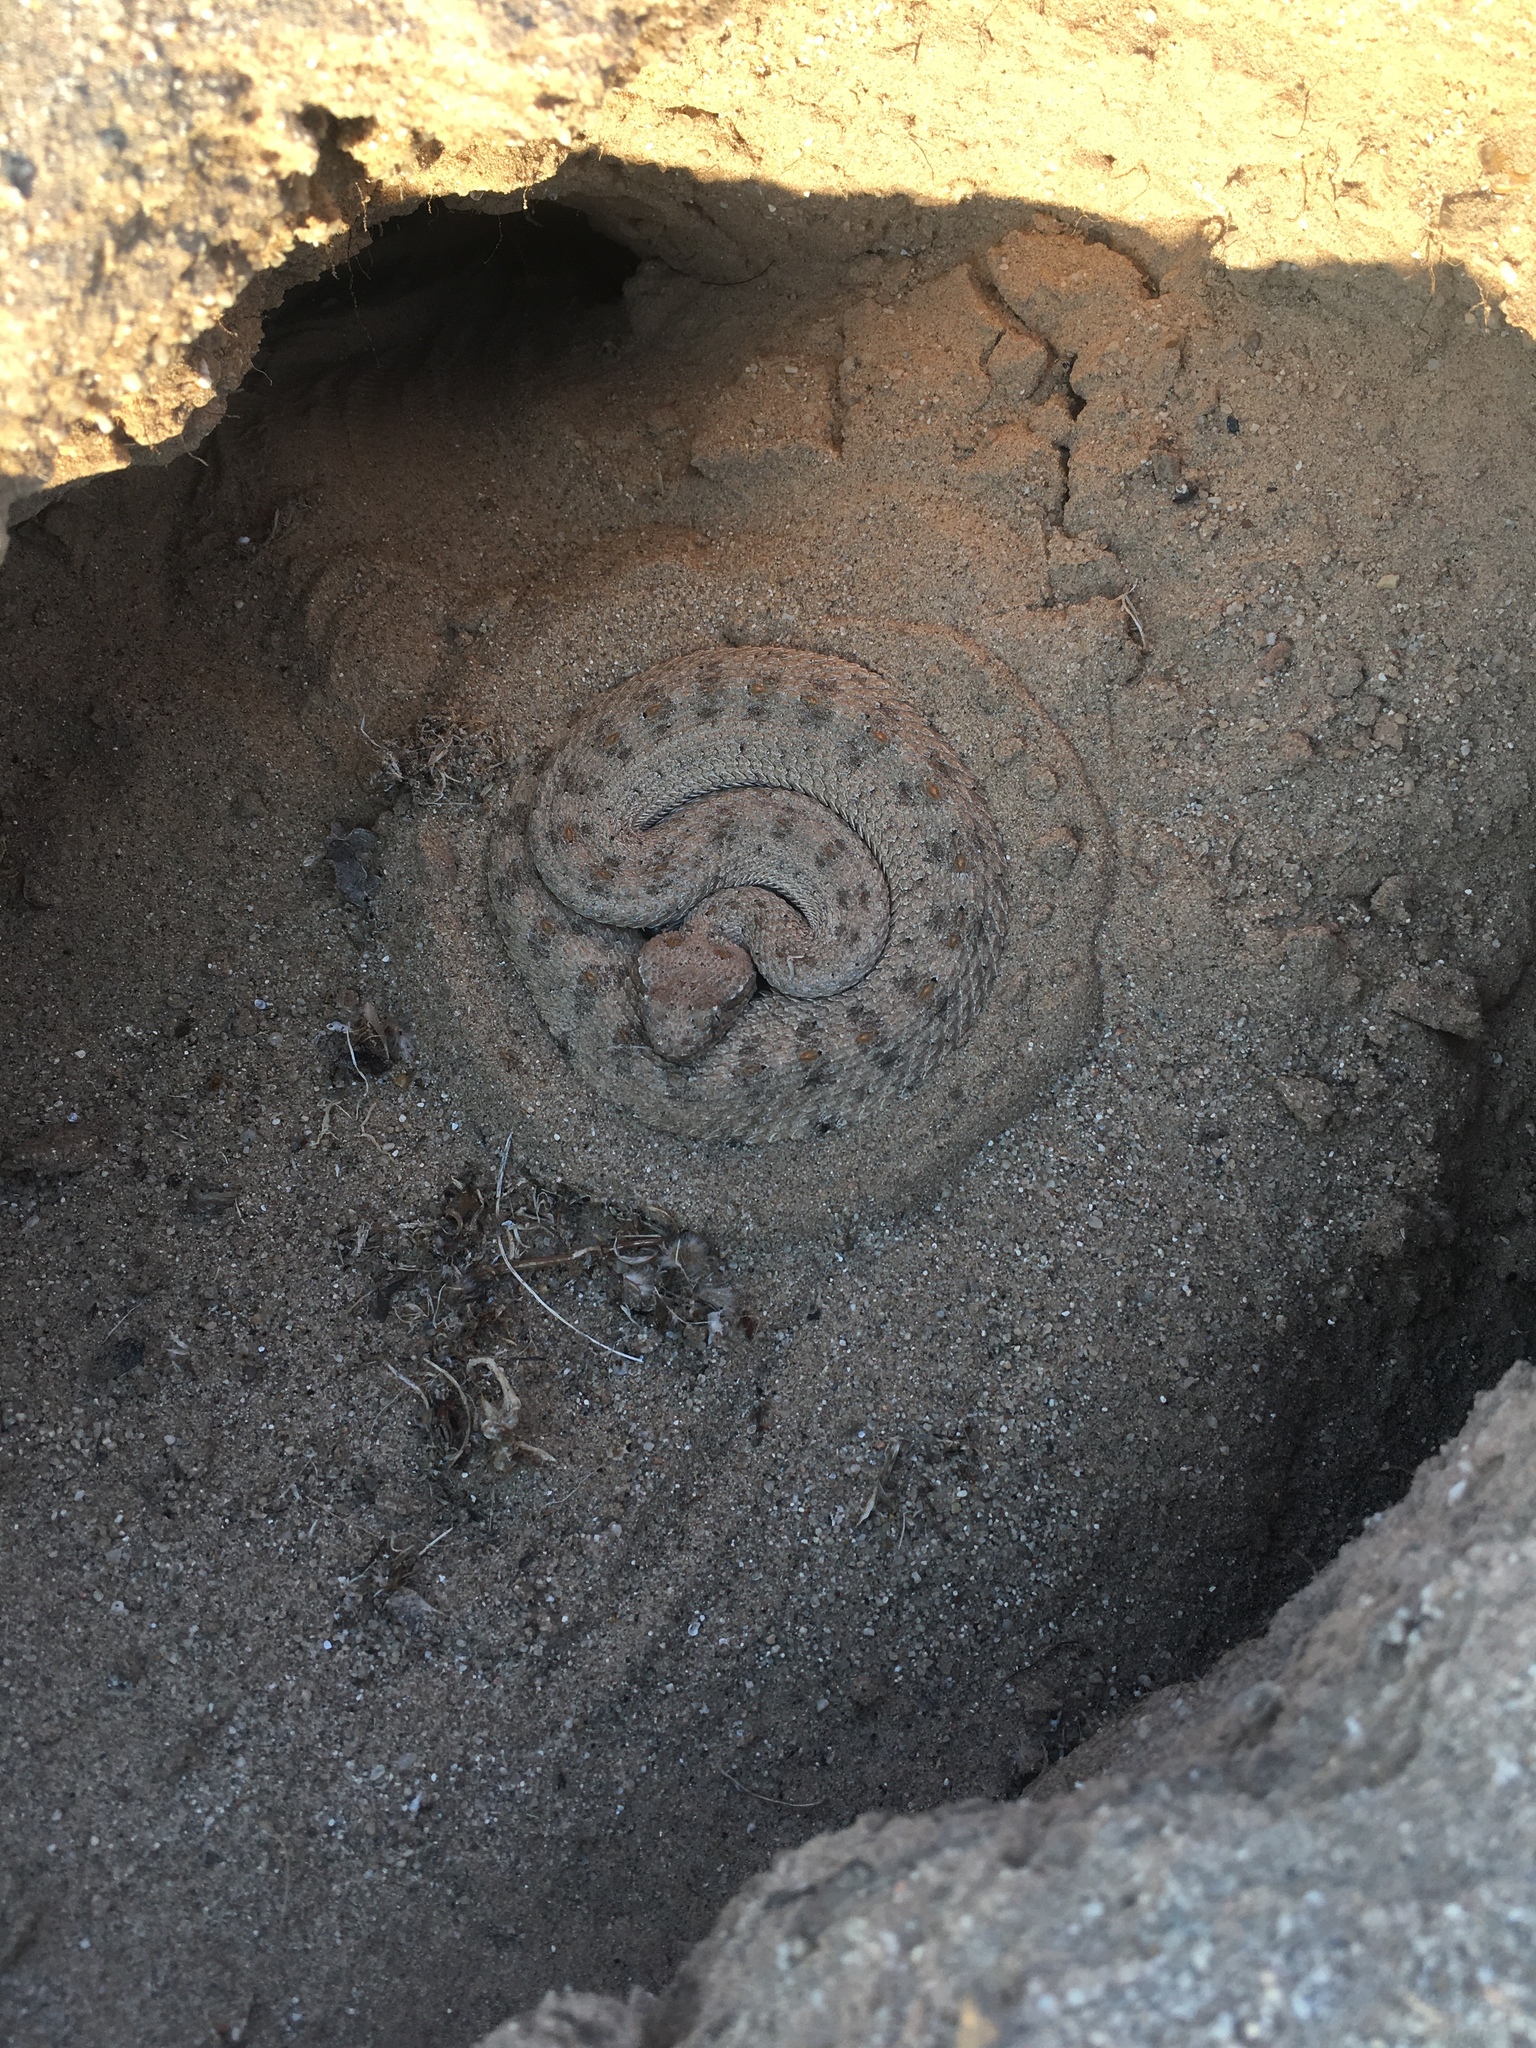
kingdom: Animalia
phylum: Chordata
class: Squamata
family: Viperidae
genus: Crotalus
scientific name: Crotalus cerastes
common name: Sidewinder
